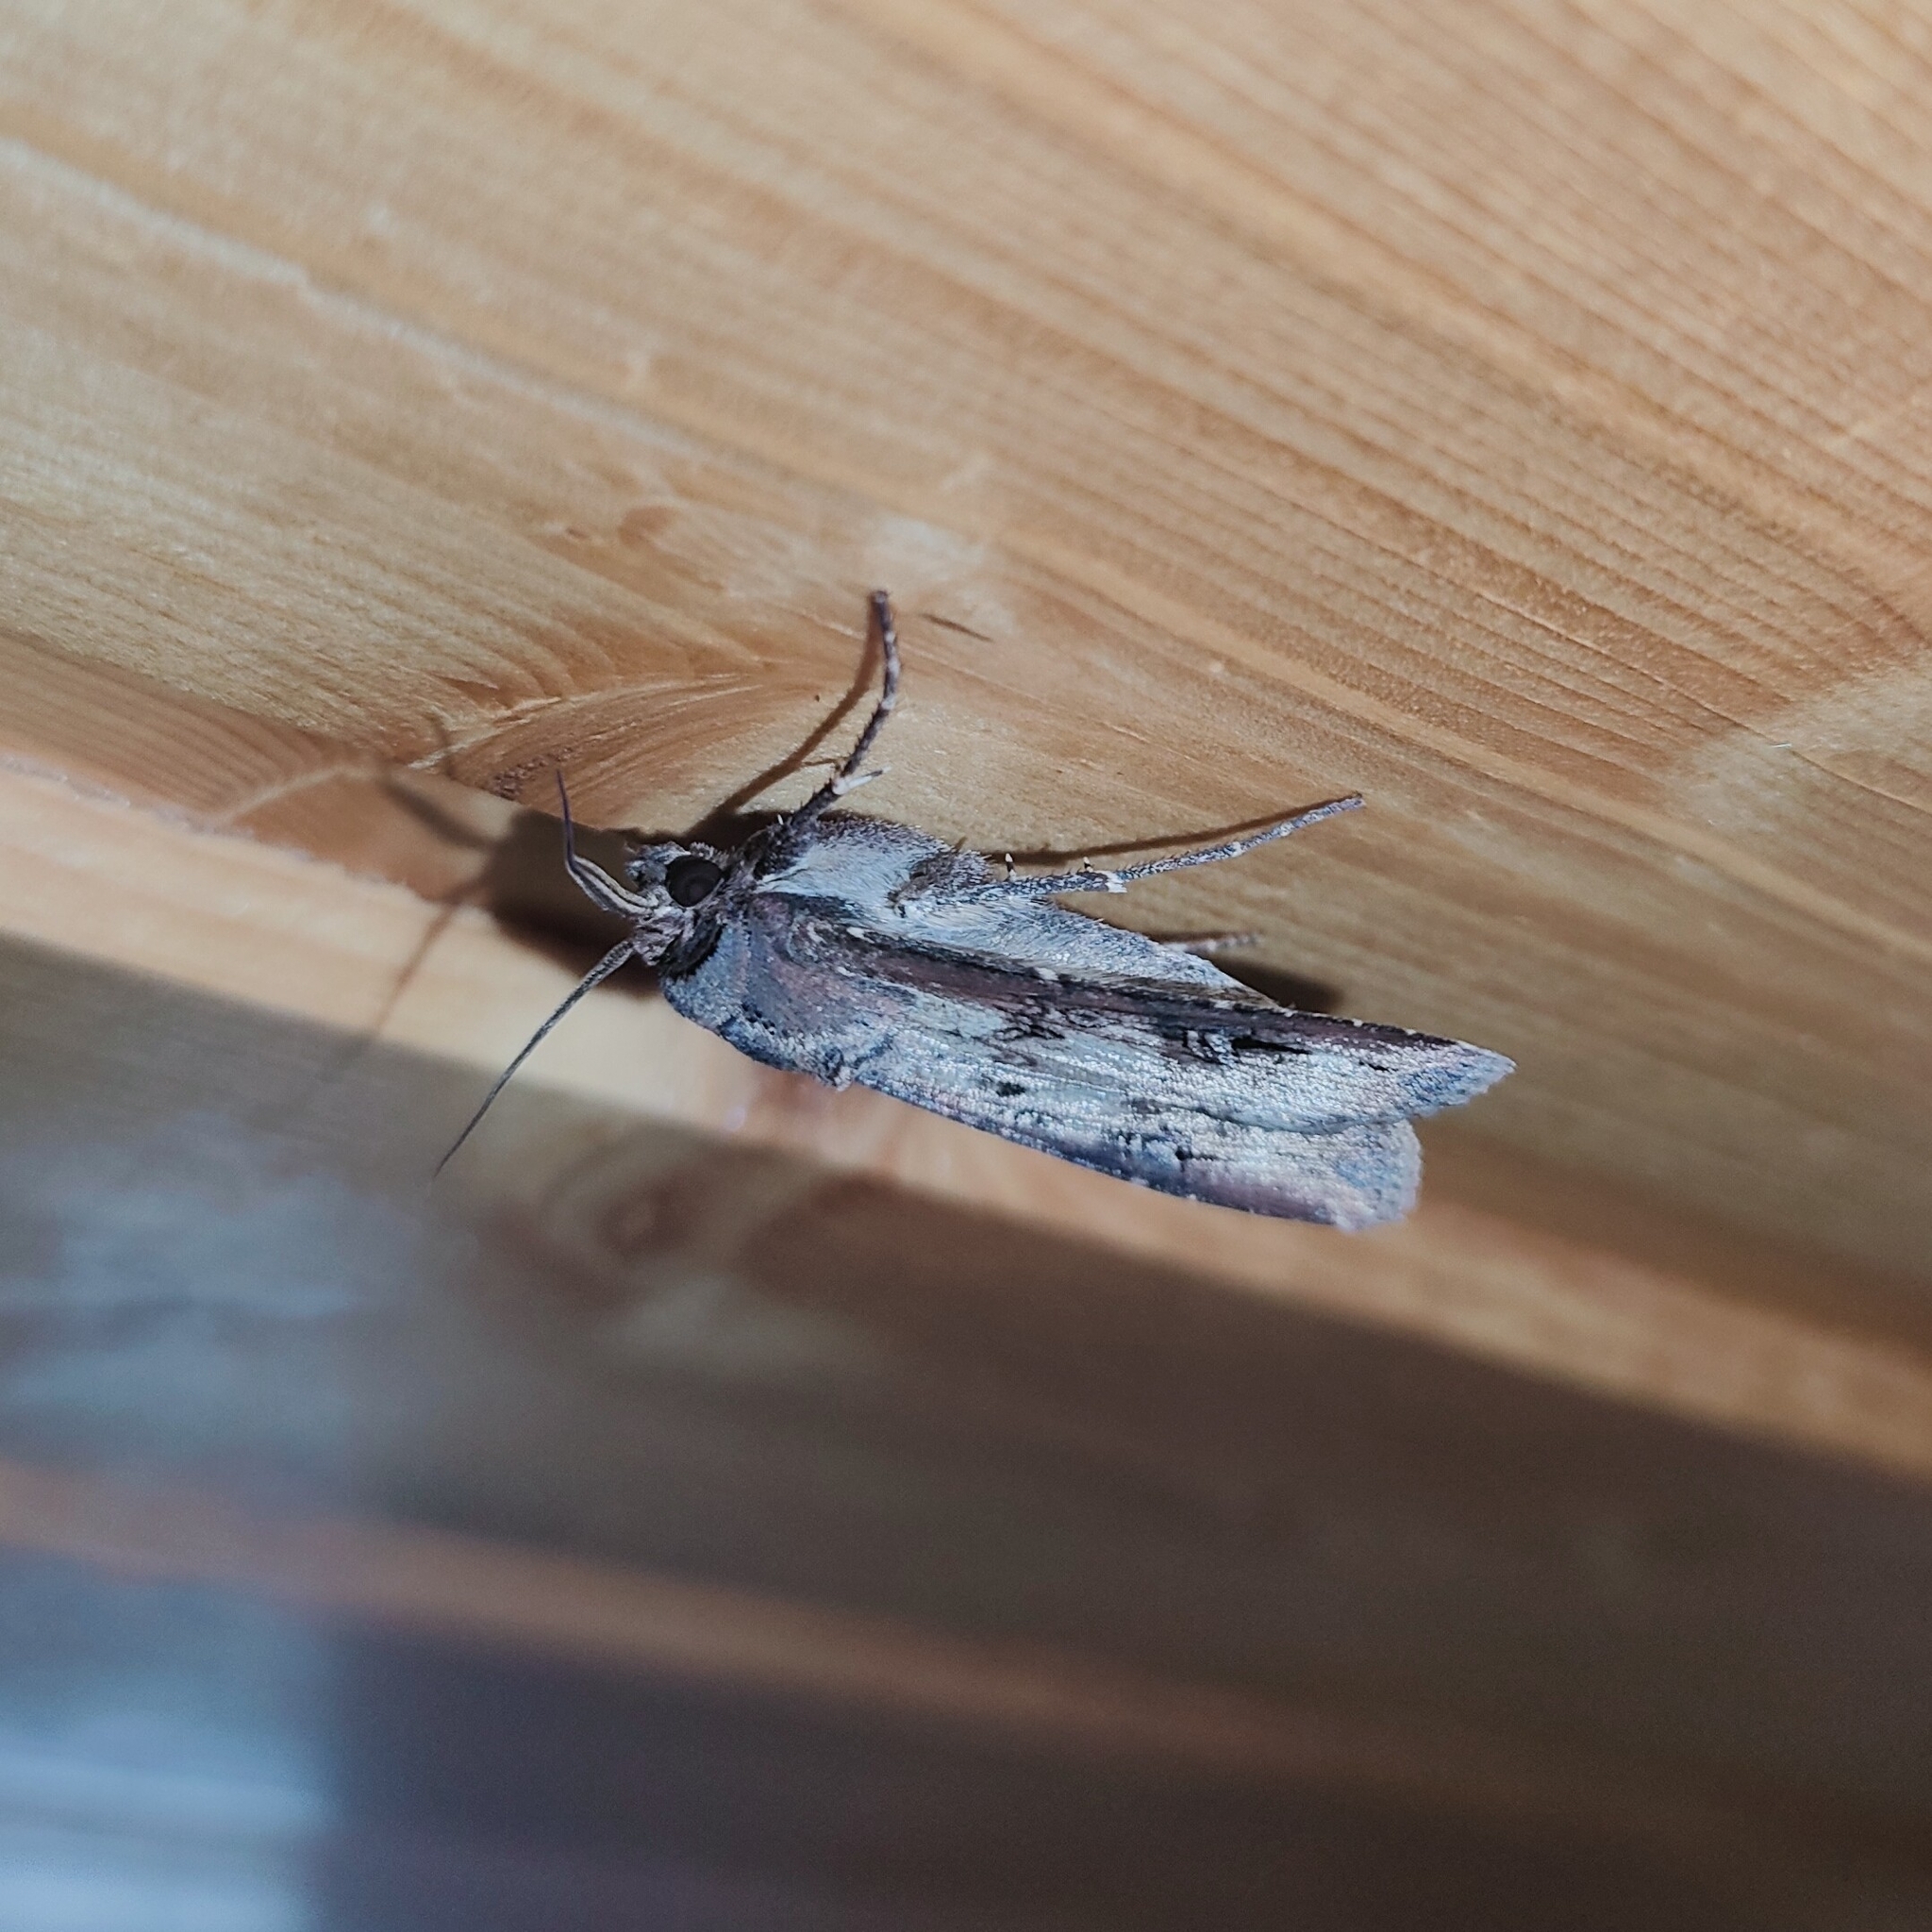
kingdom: Animalia
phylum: Arthropoda
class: Insecta
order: Lepidoptera
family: Noctuidae
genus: Agrotis
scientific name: Agrotis ipsilon
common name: Dark sword-grass
